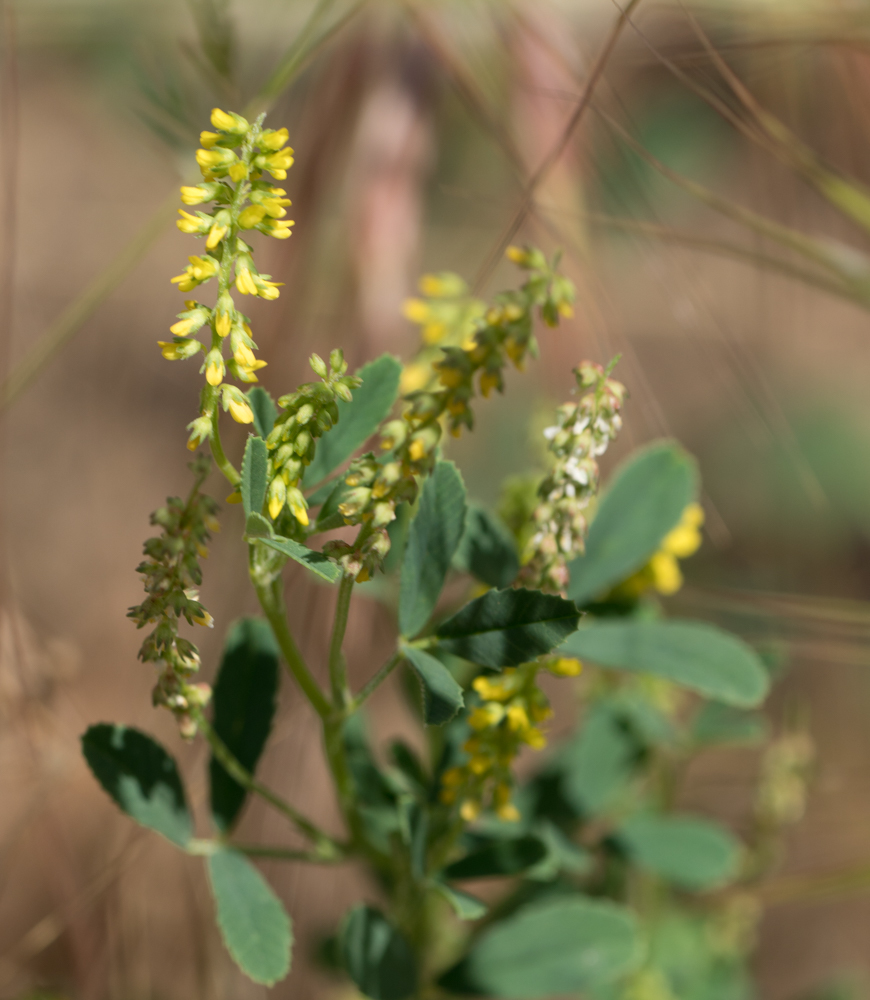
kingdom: Plantae
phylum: Tracheophyta
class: Magnoliopsida
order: Fabales
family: Fabaceae
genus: Melilotus
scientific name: Melilotus indicus
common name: Small melilot
